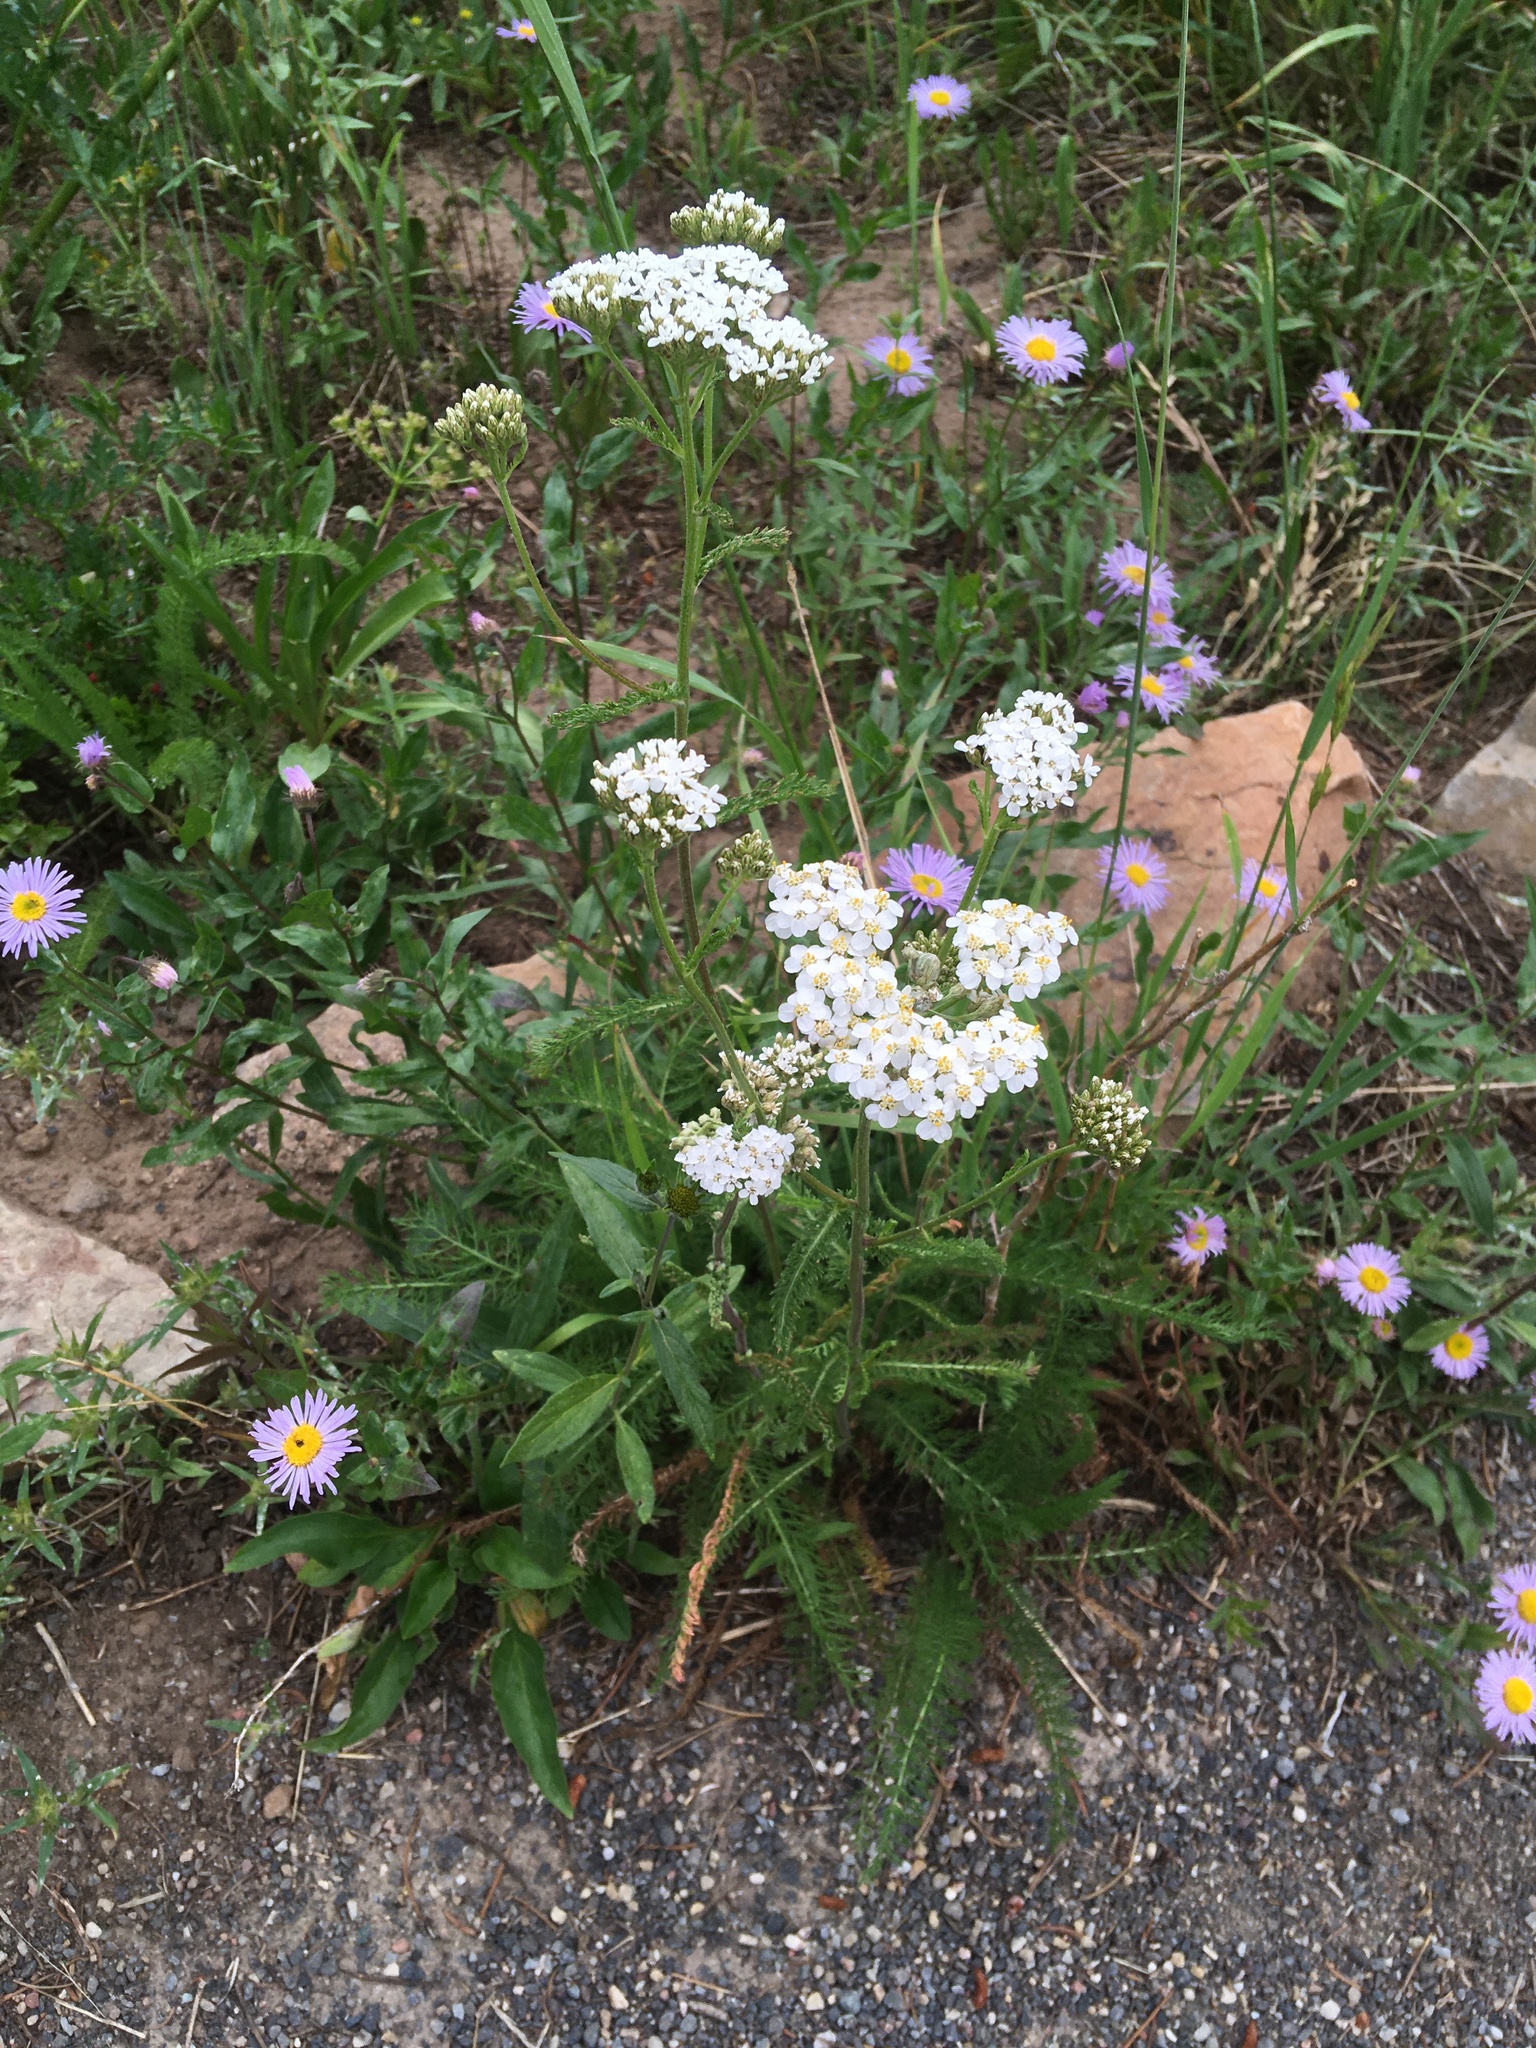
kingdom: Plantae
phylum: Tracheophyta
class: Magnoliopsida
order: Asterales
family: Asteraceae
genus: Achillea
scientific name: Achillea millefolium
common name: Yarrow
